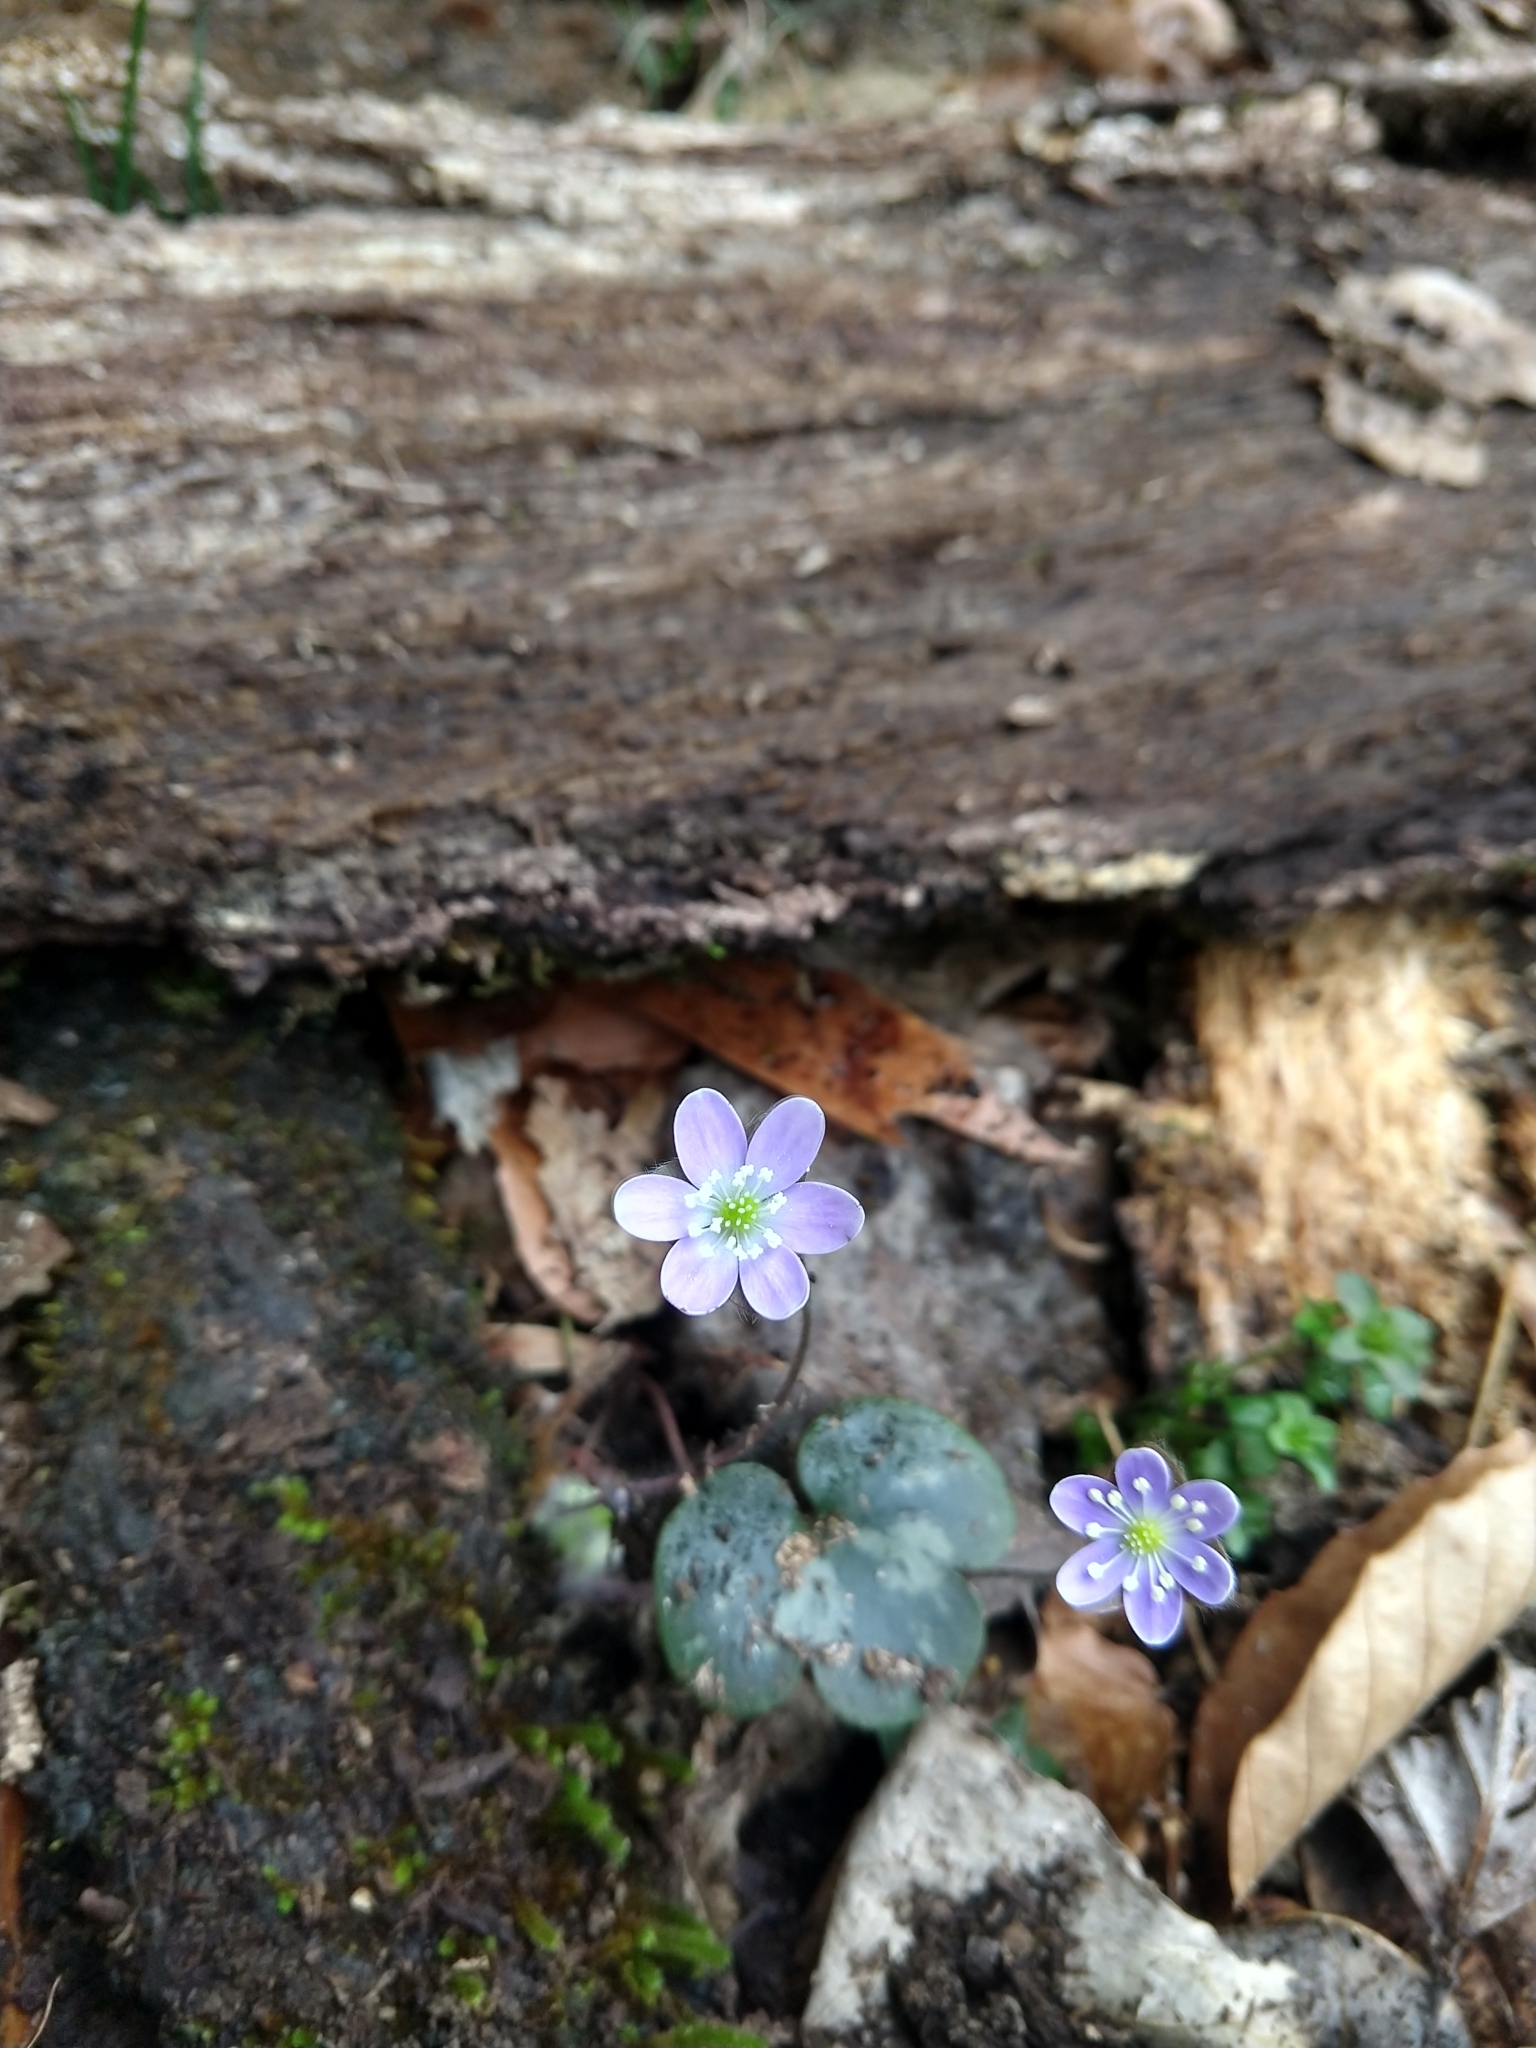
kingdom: Plantae
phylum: Tracheophyta
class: Magnoliopsida
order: Ranunculales
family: Ranunculaceae
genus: Hepatica
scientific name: Hepatica americana
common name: American hepatica
